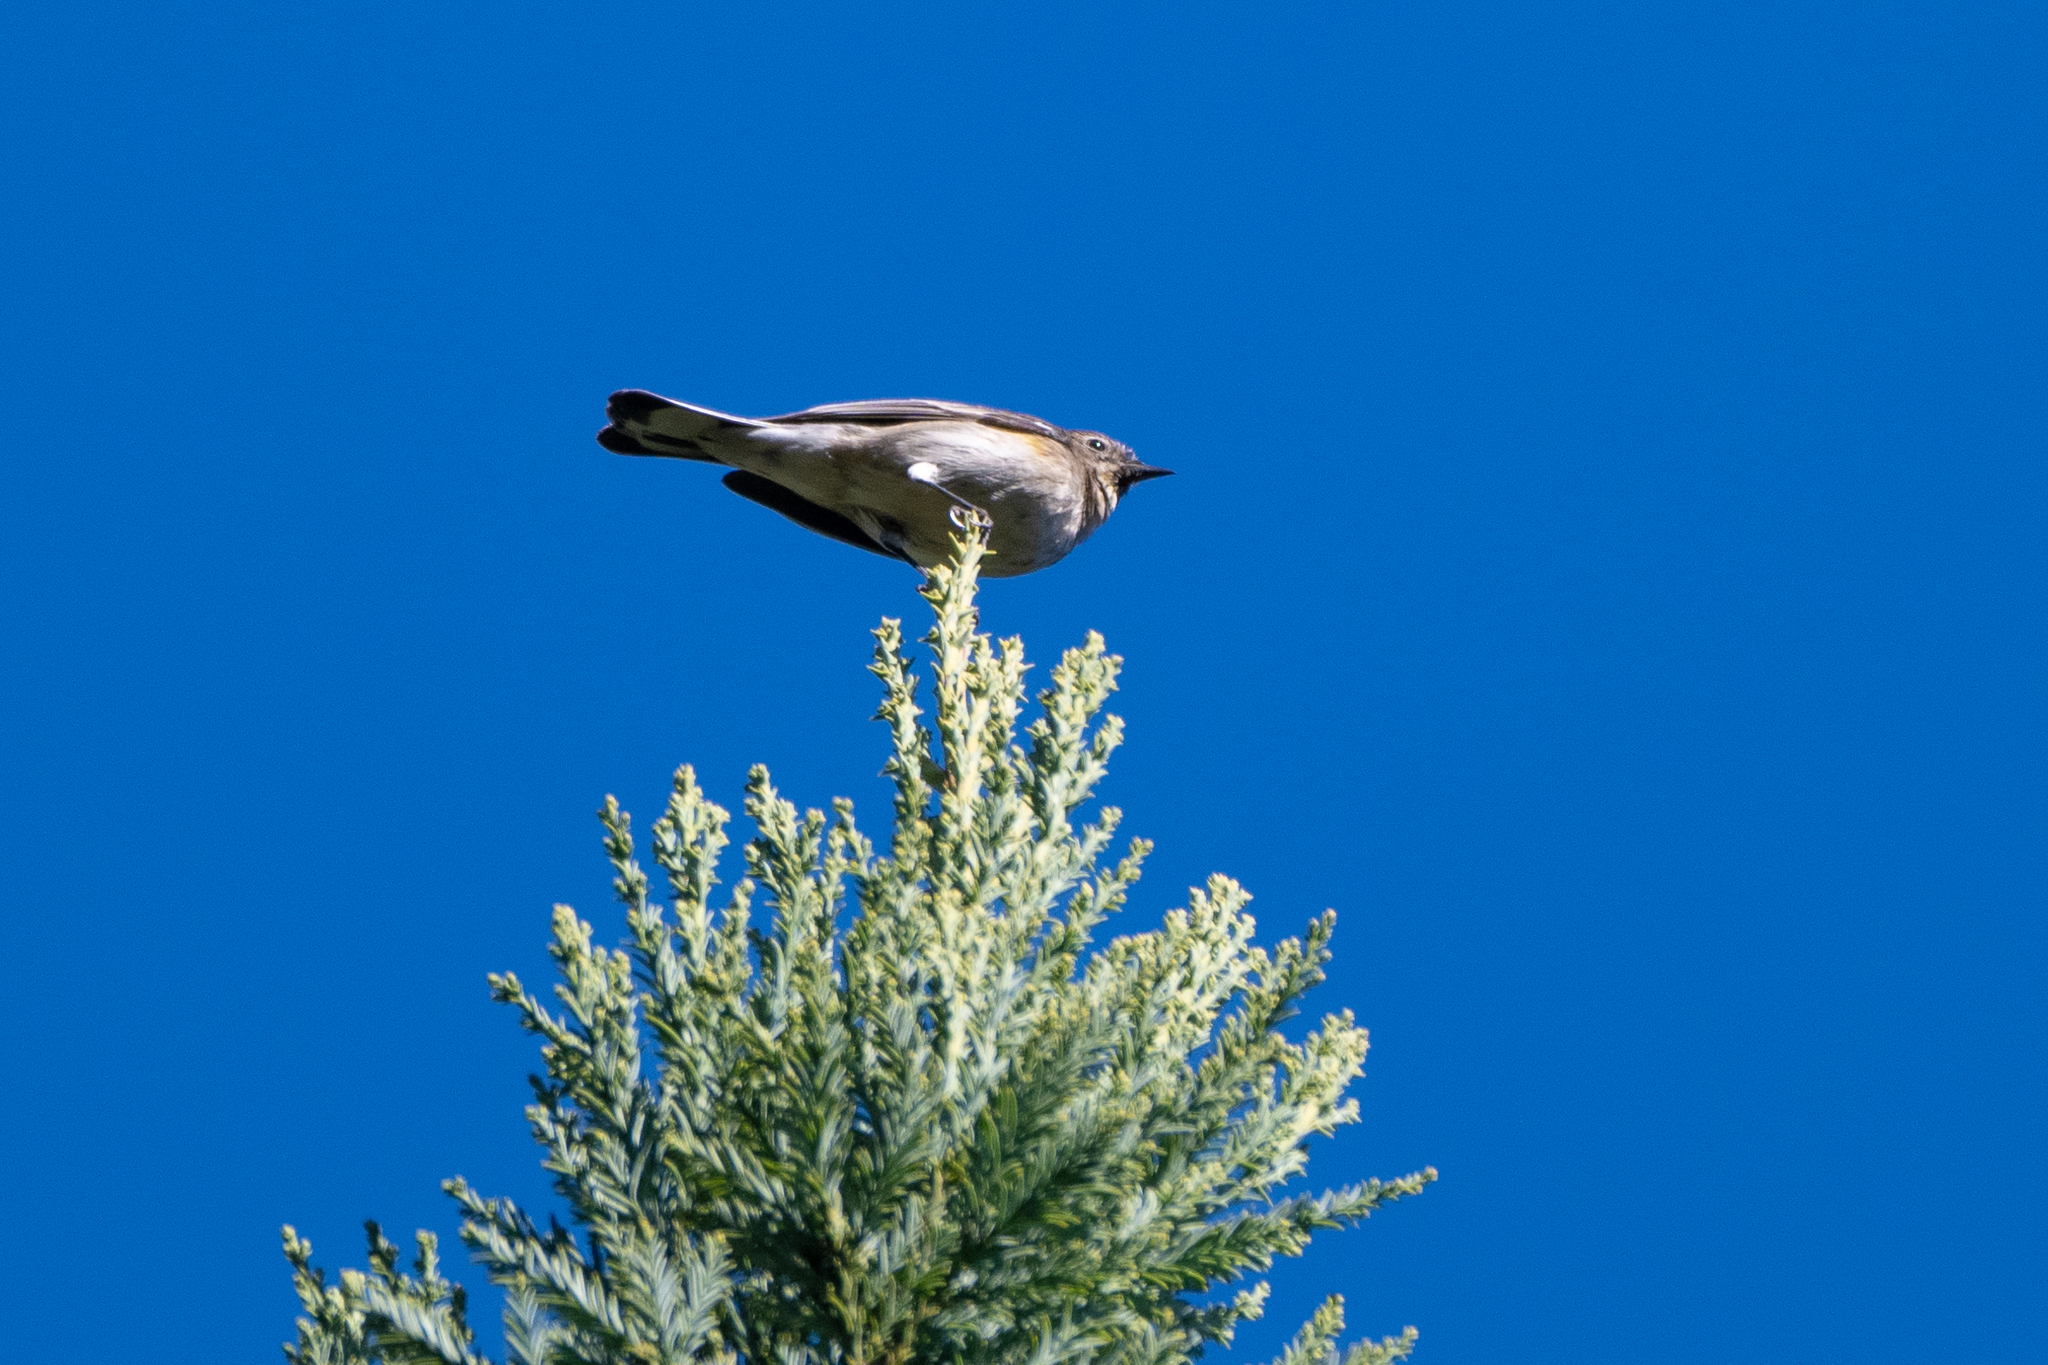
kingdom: Animalia
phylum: Chordata
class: Aves
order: Passeriformes
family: Parulidae
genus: Setophaga
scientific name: Setophaga coronata
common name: Myrtle warbler
